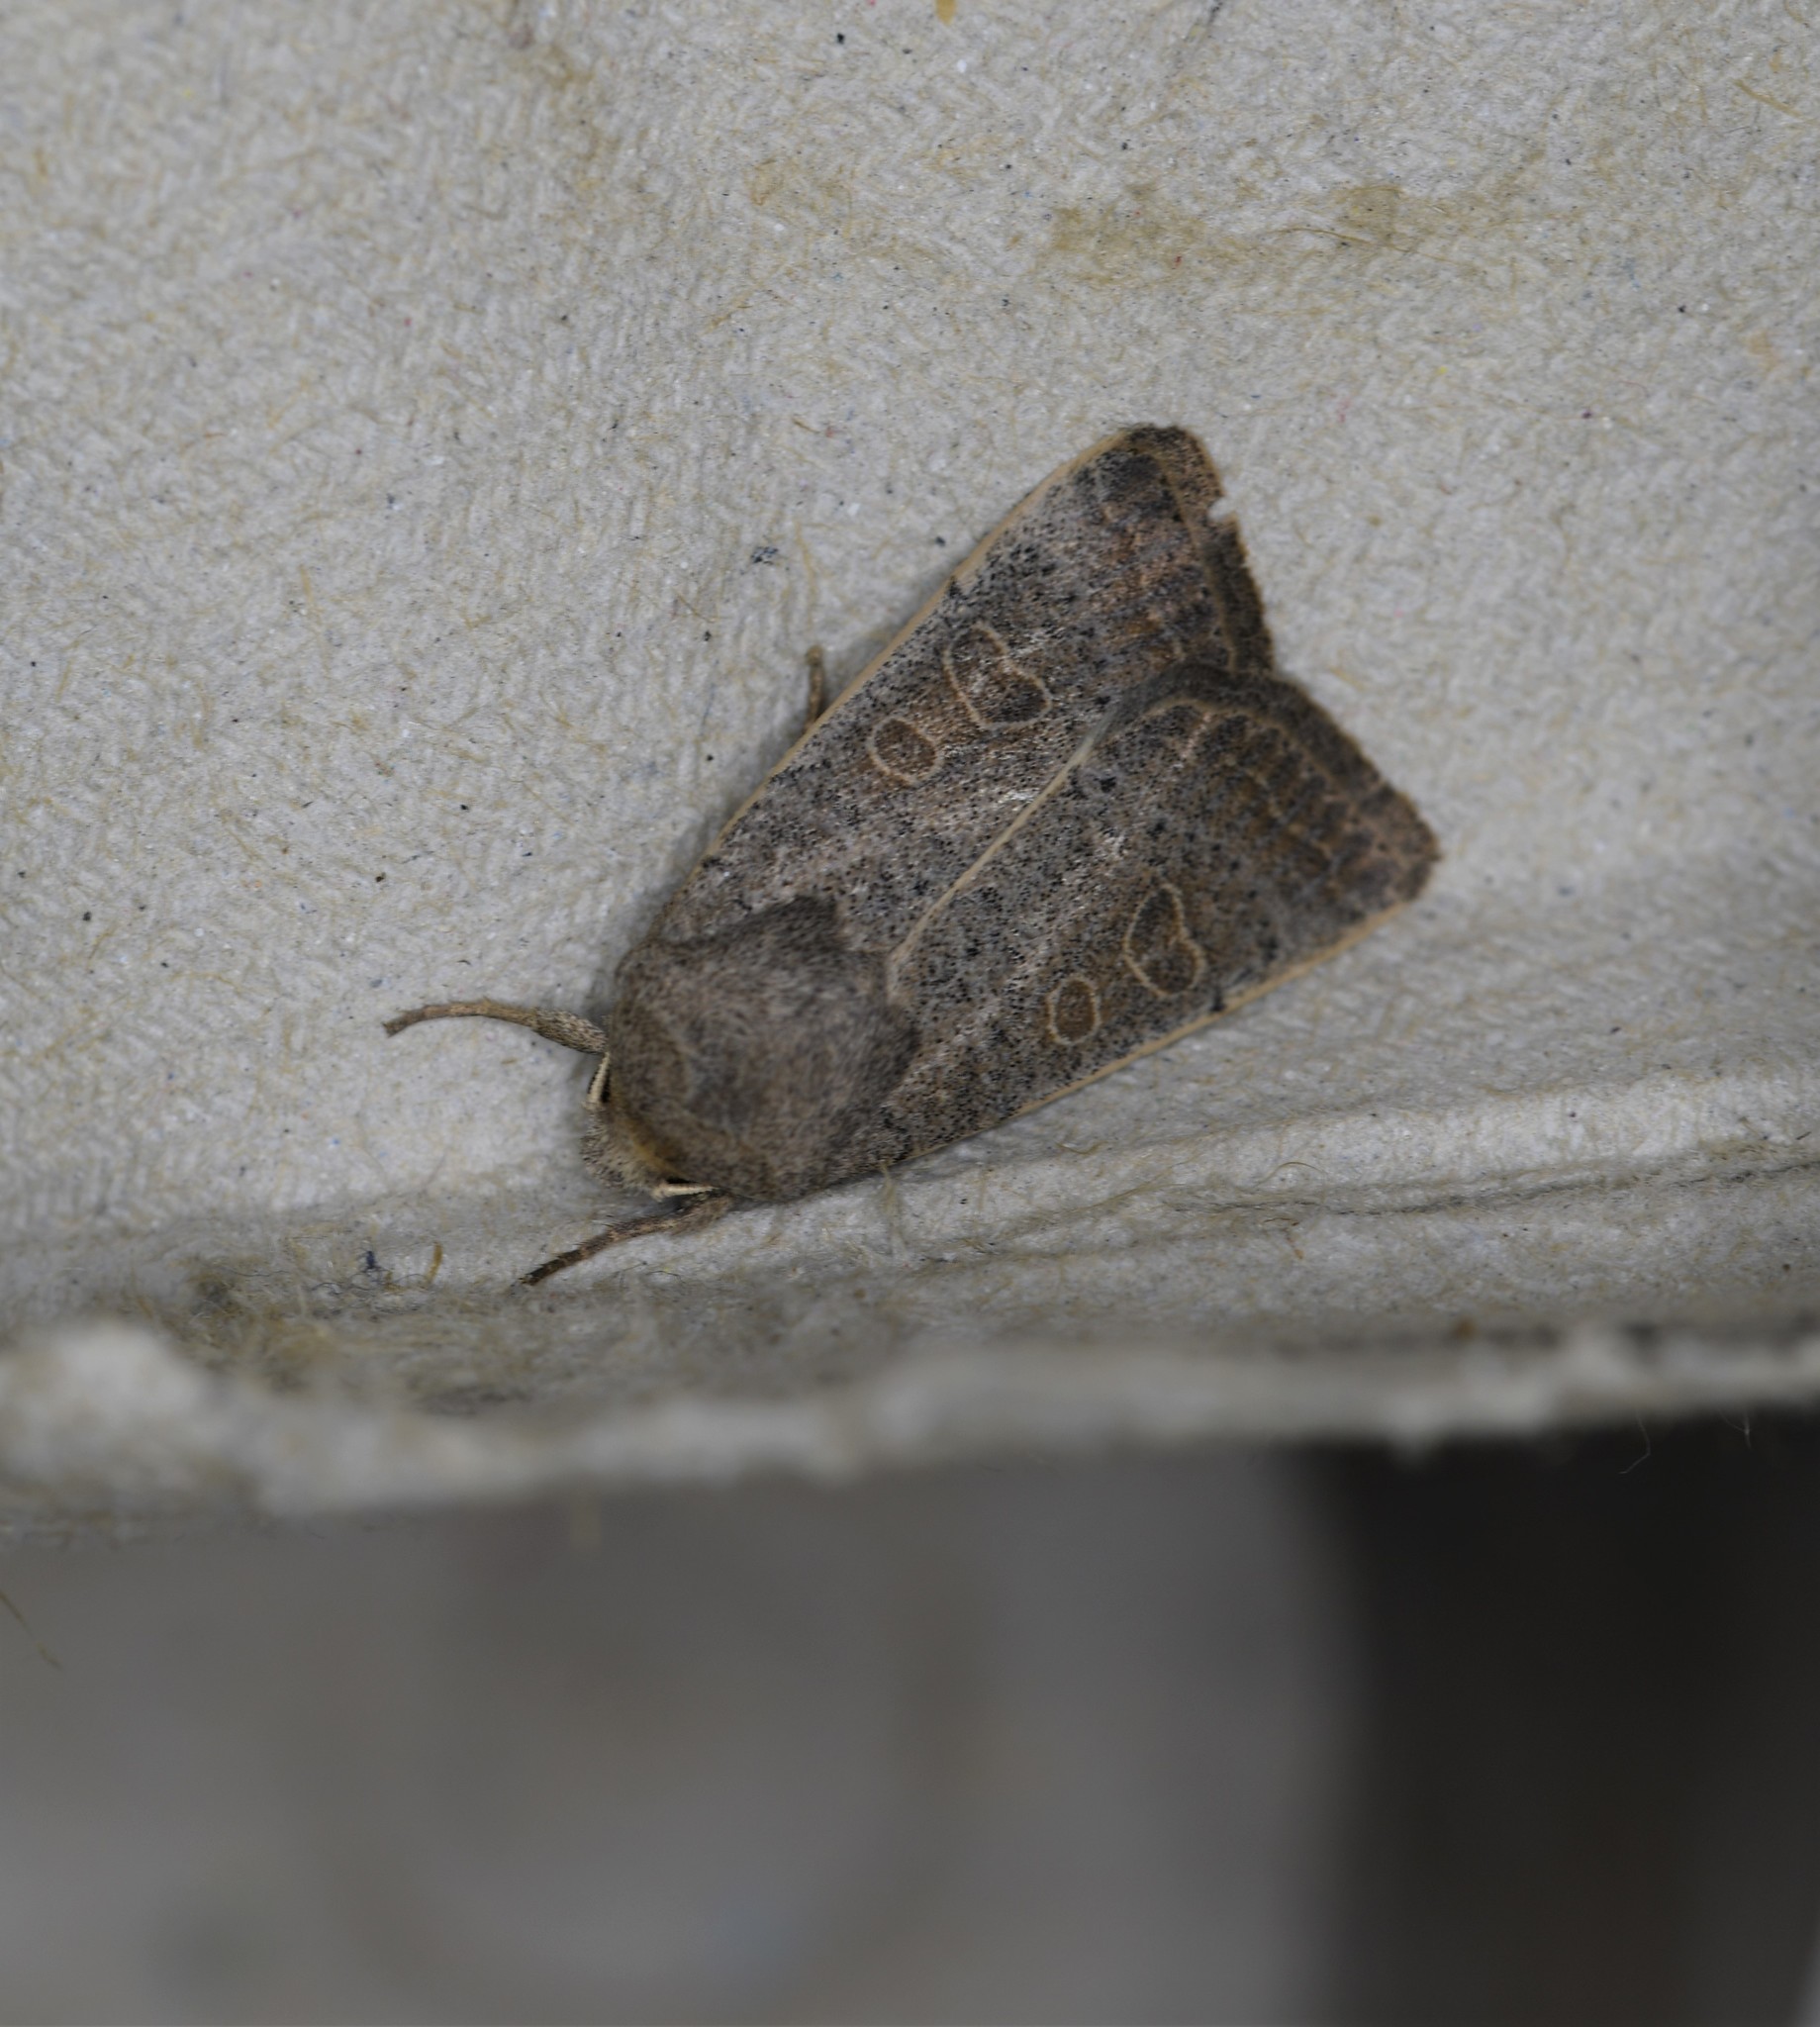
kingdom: Animalia
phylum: Arthropoda
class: Insecta
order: Lepidoptera
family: Noctuidae
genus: Hoplodrina
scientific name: Hoplodrina ambigua
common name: Vine's rustic
